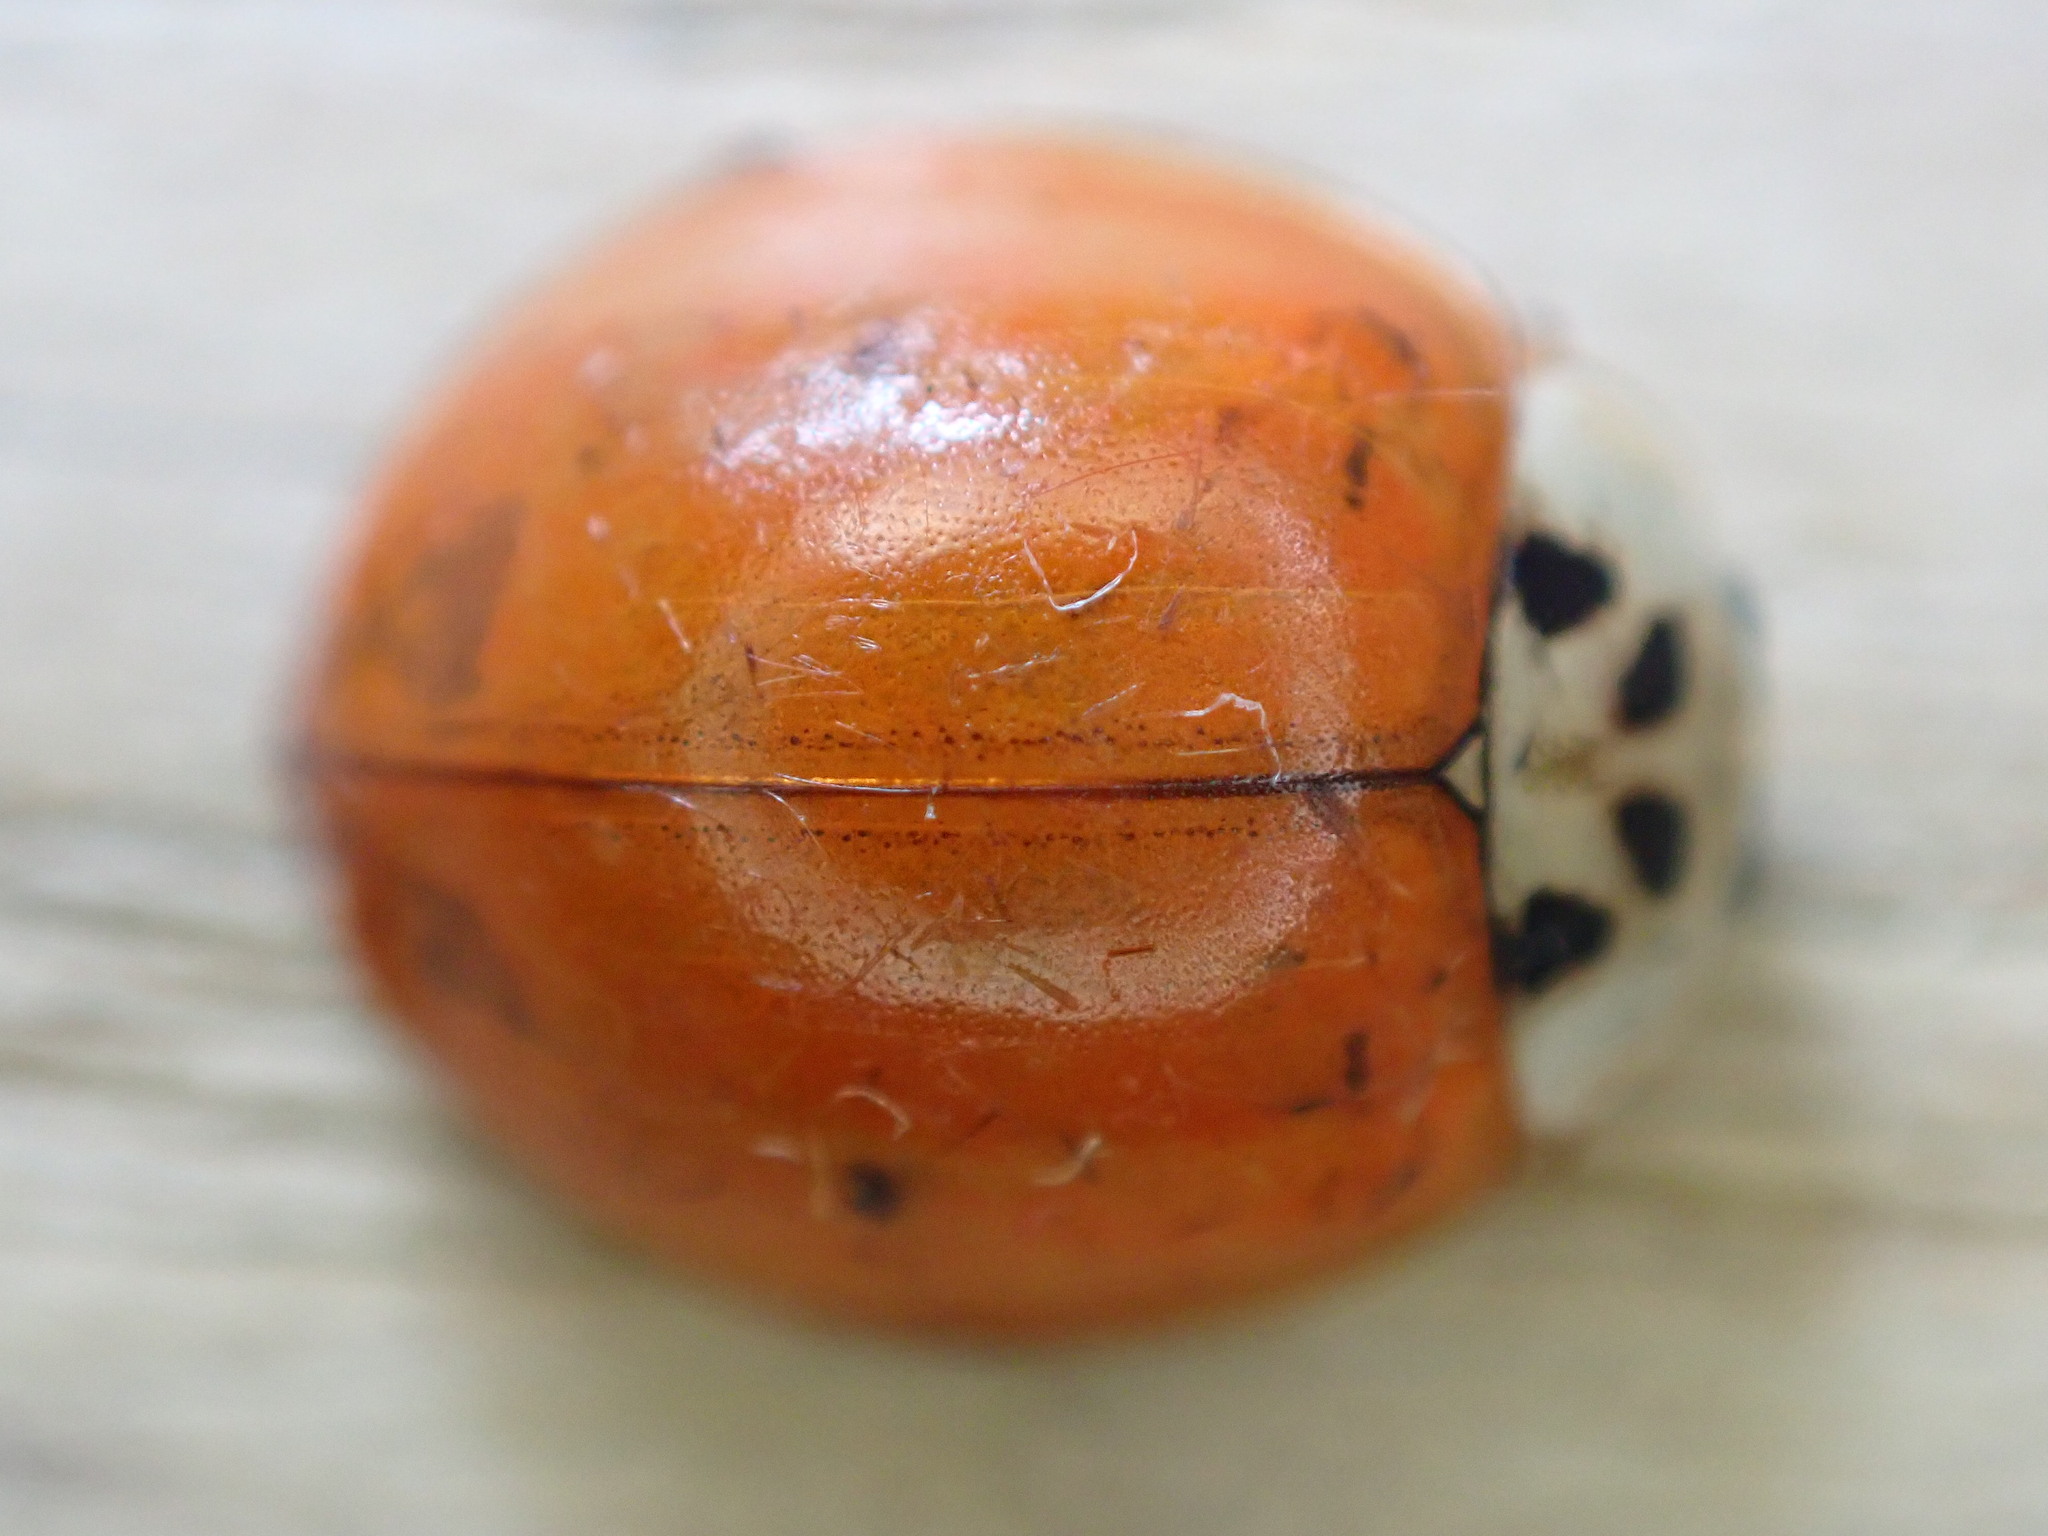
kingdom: Animalia
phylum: Arthropoda
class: Insecta
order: Coleoptera
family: Coccinellidae
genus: Harmonia
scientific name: Harmonia axyridis
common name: Harlequin ladybird
